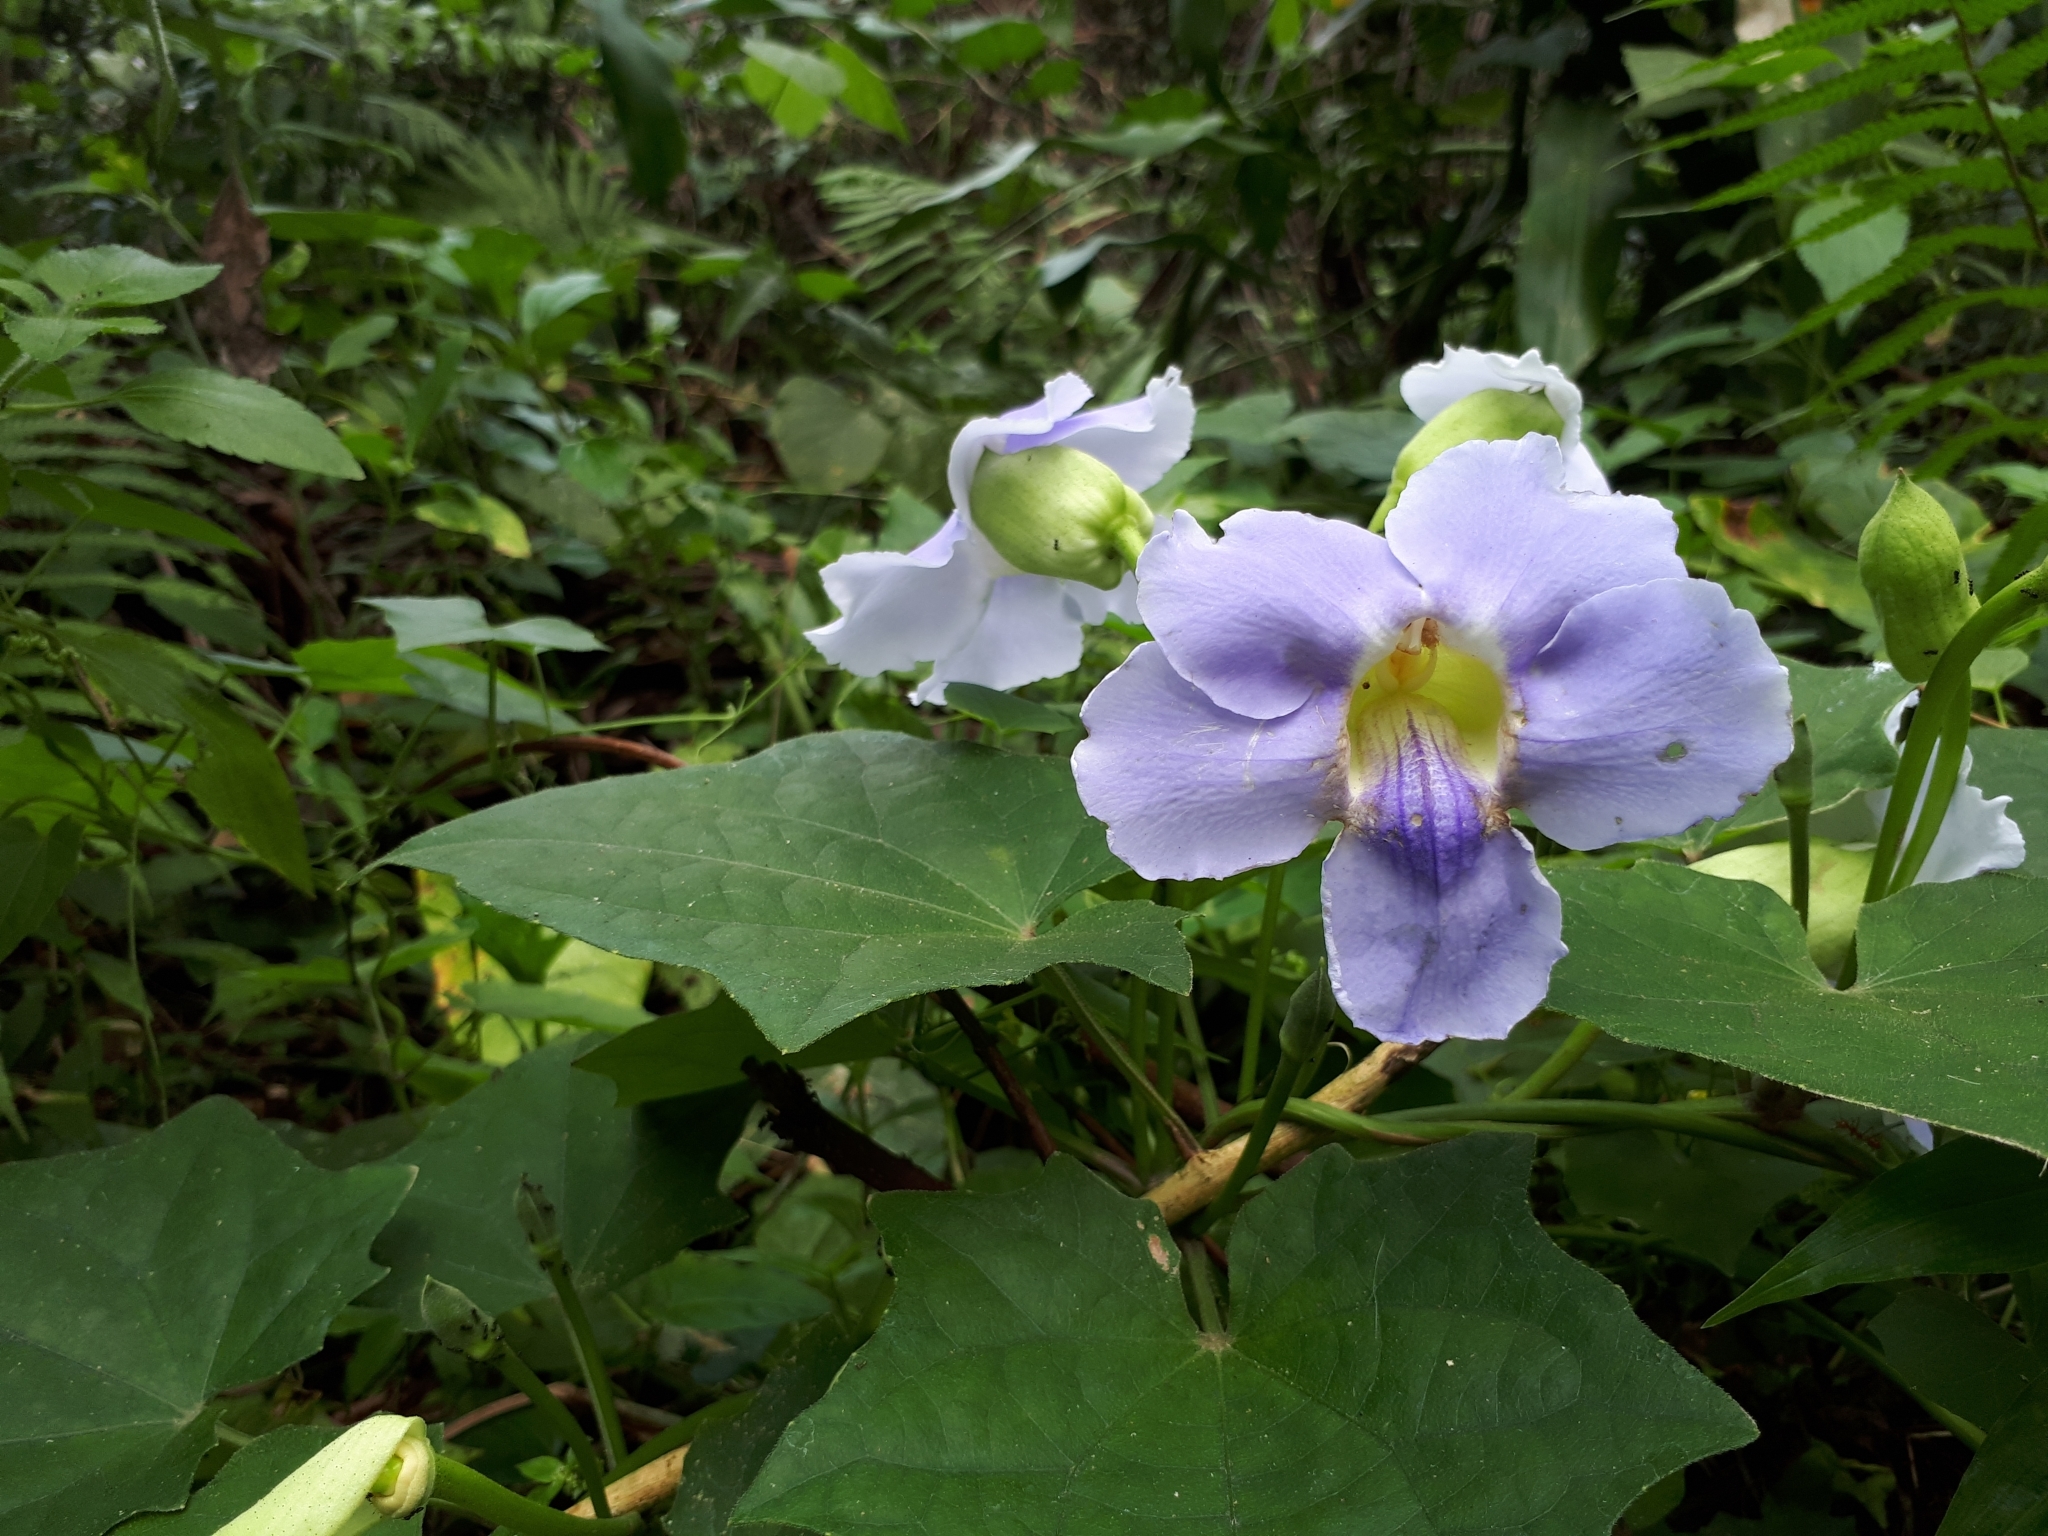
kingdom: Plantae
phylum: Tracheophyta
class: Magnoliopsida
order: Lamiales
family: Acanthaceae
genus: Thunbergia
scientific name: Thunbergia grandiflora
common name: Bengal trumpet
